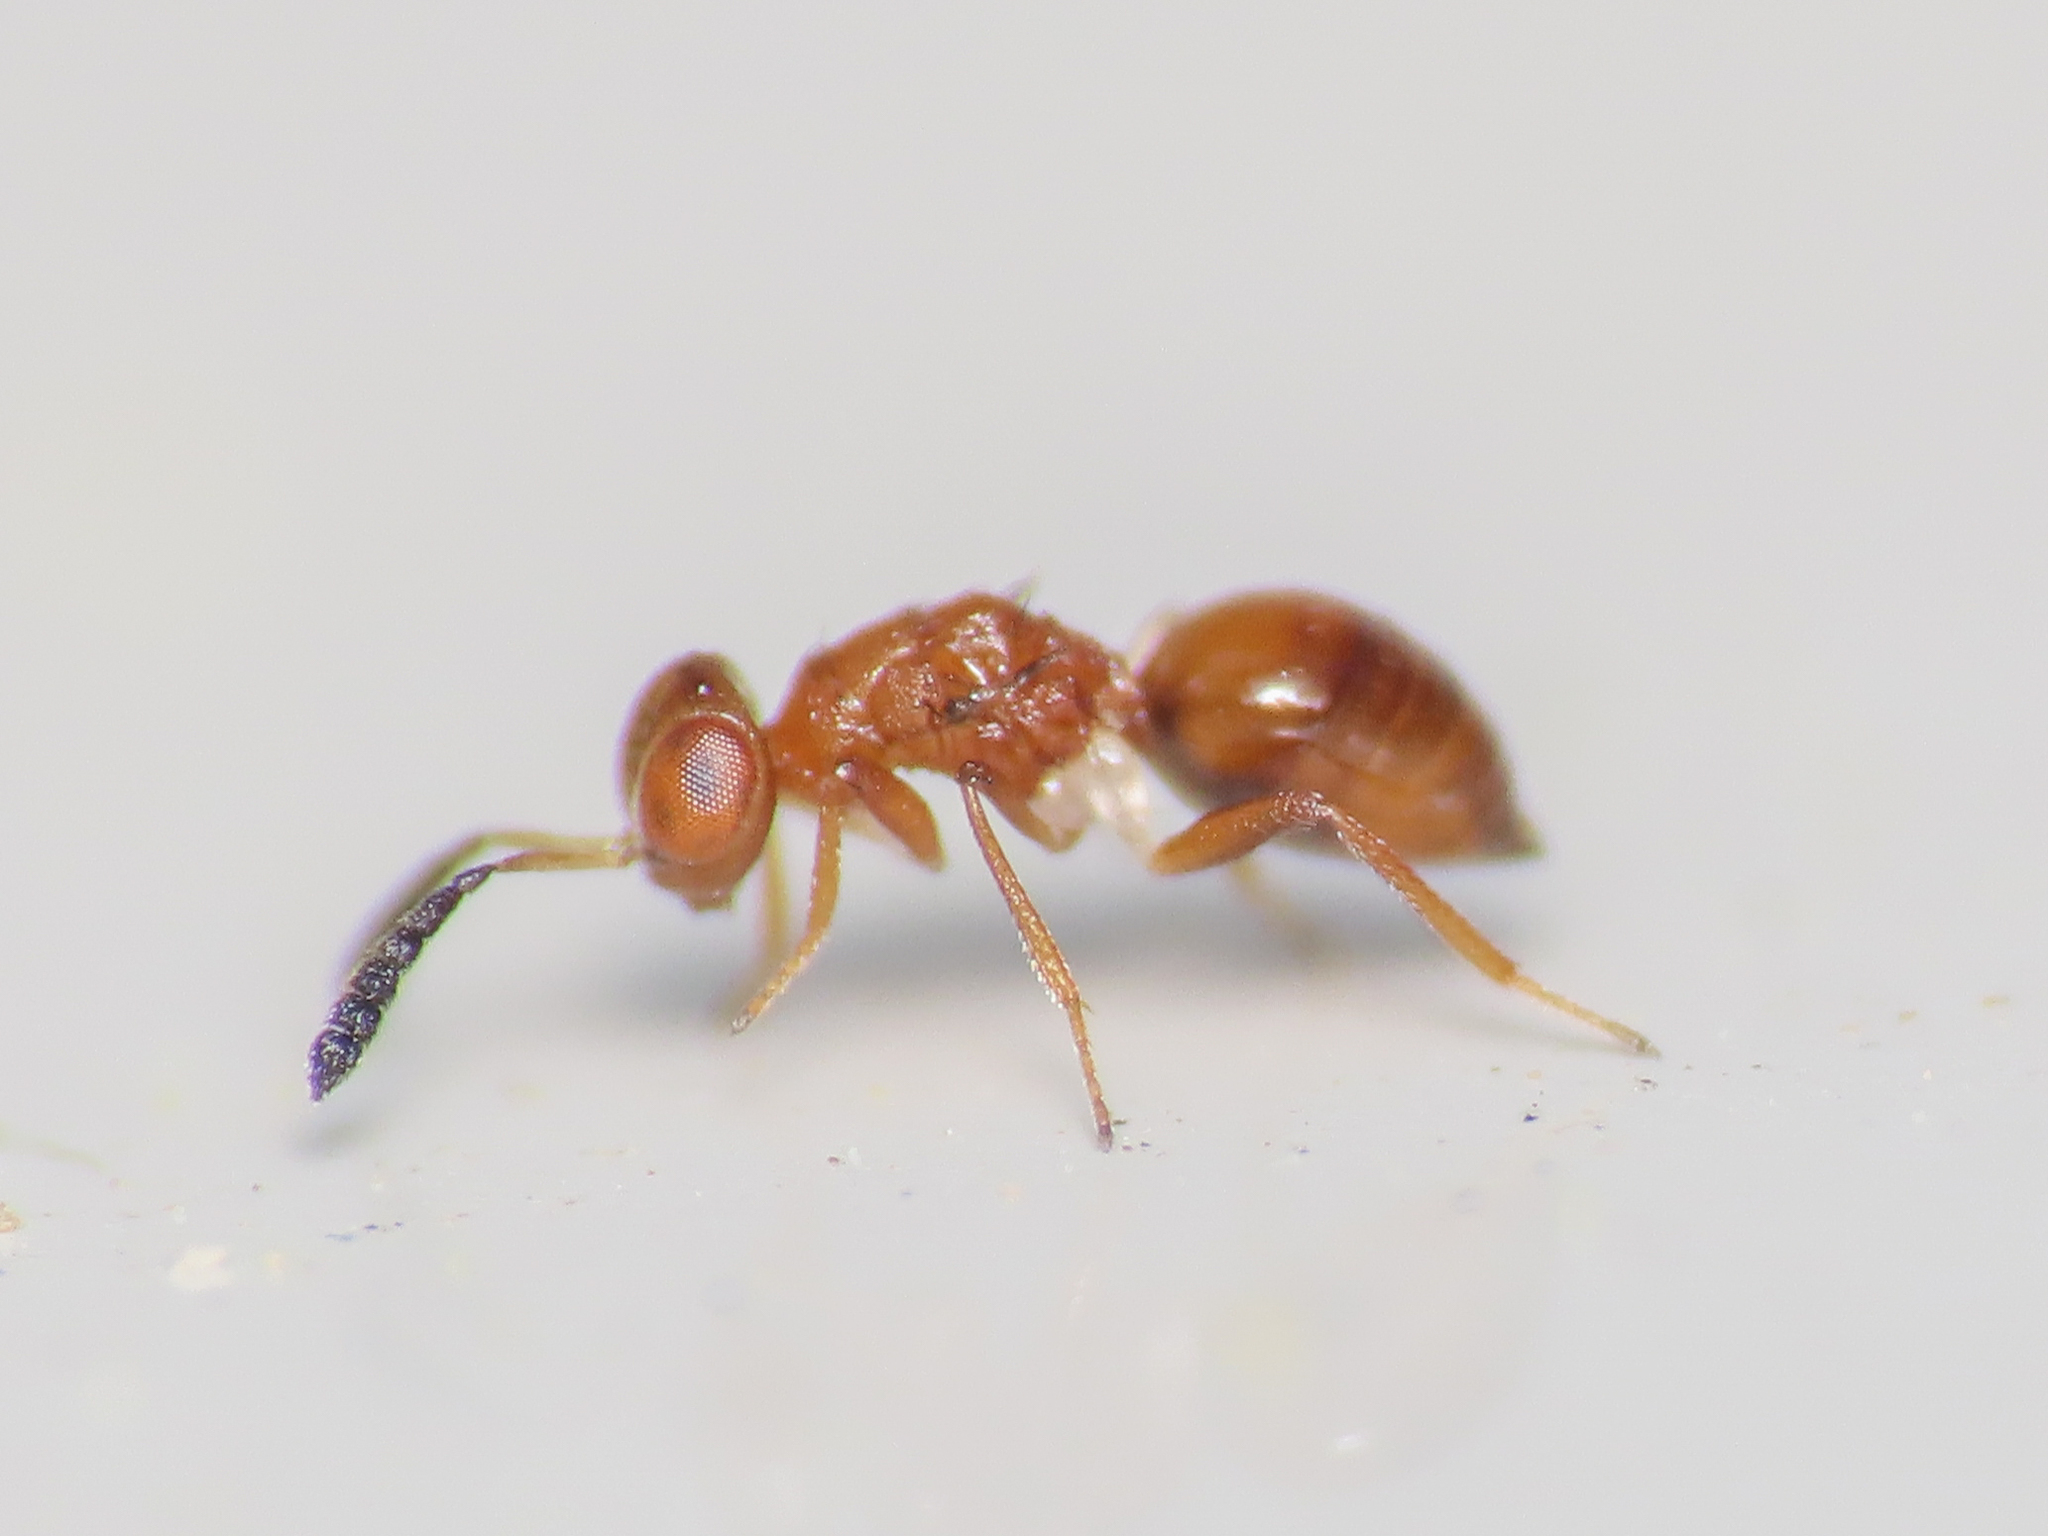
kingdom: Animalia
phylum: Arthropoda
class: Insecta
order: Hymenoptera
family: Eulophidae
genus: Xanthella
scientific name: Xanthella szabopatayi
